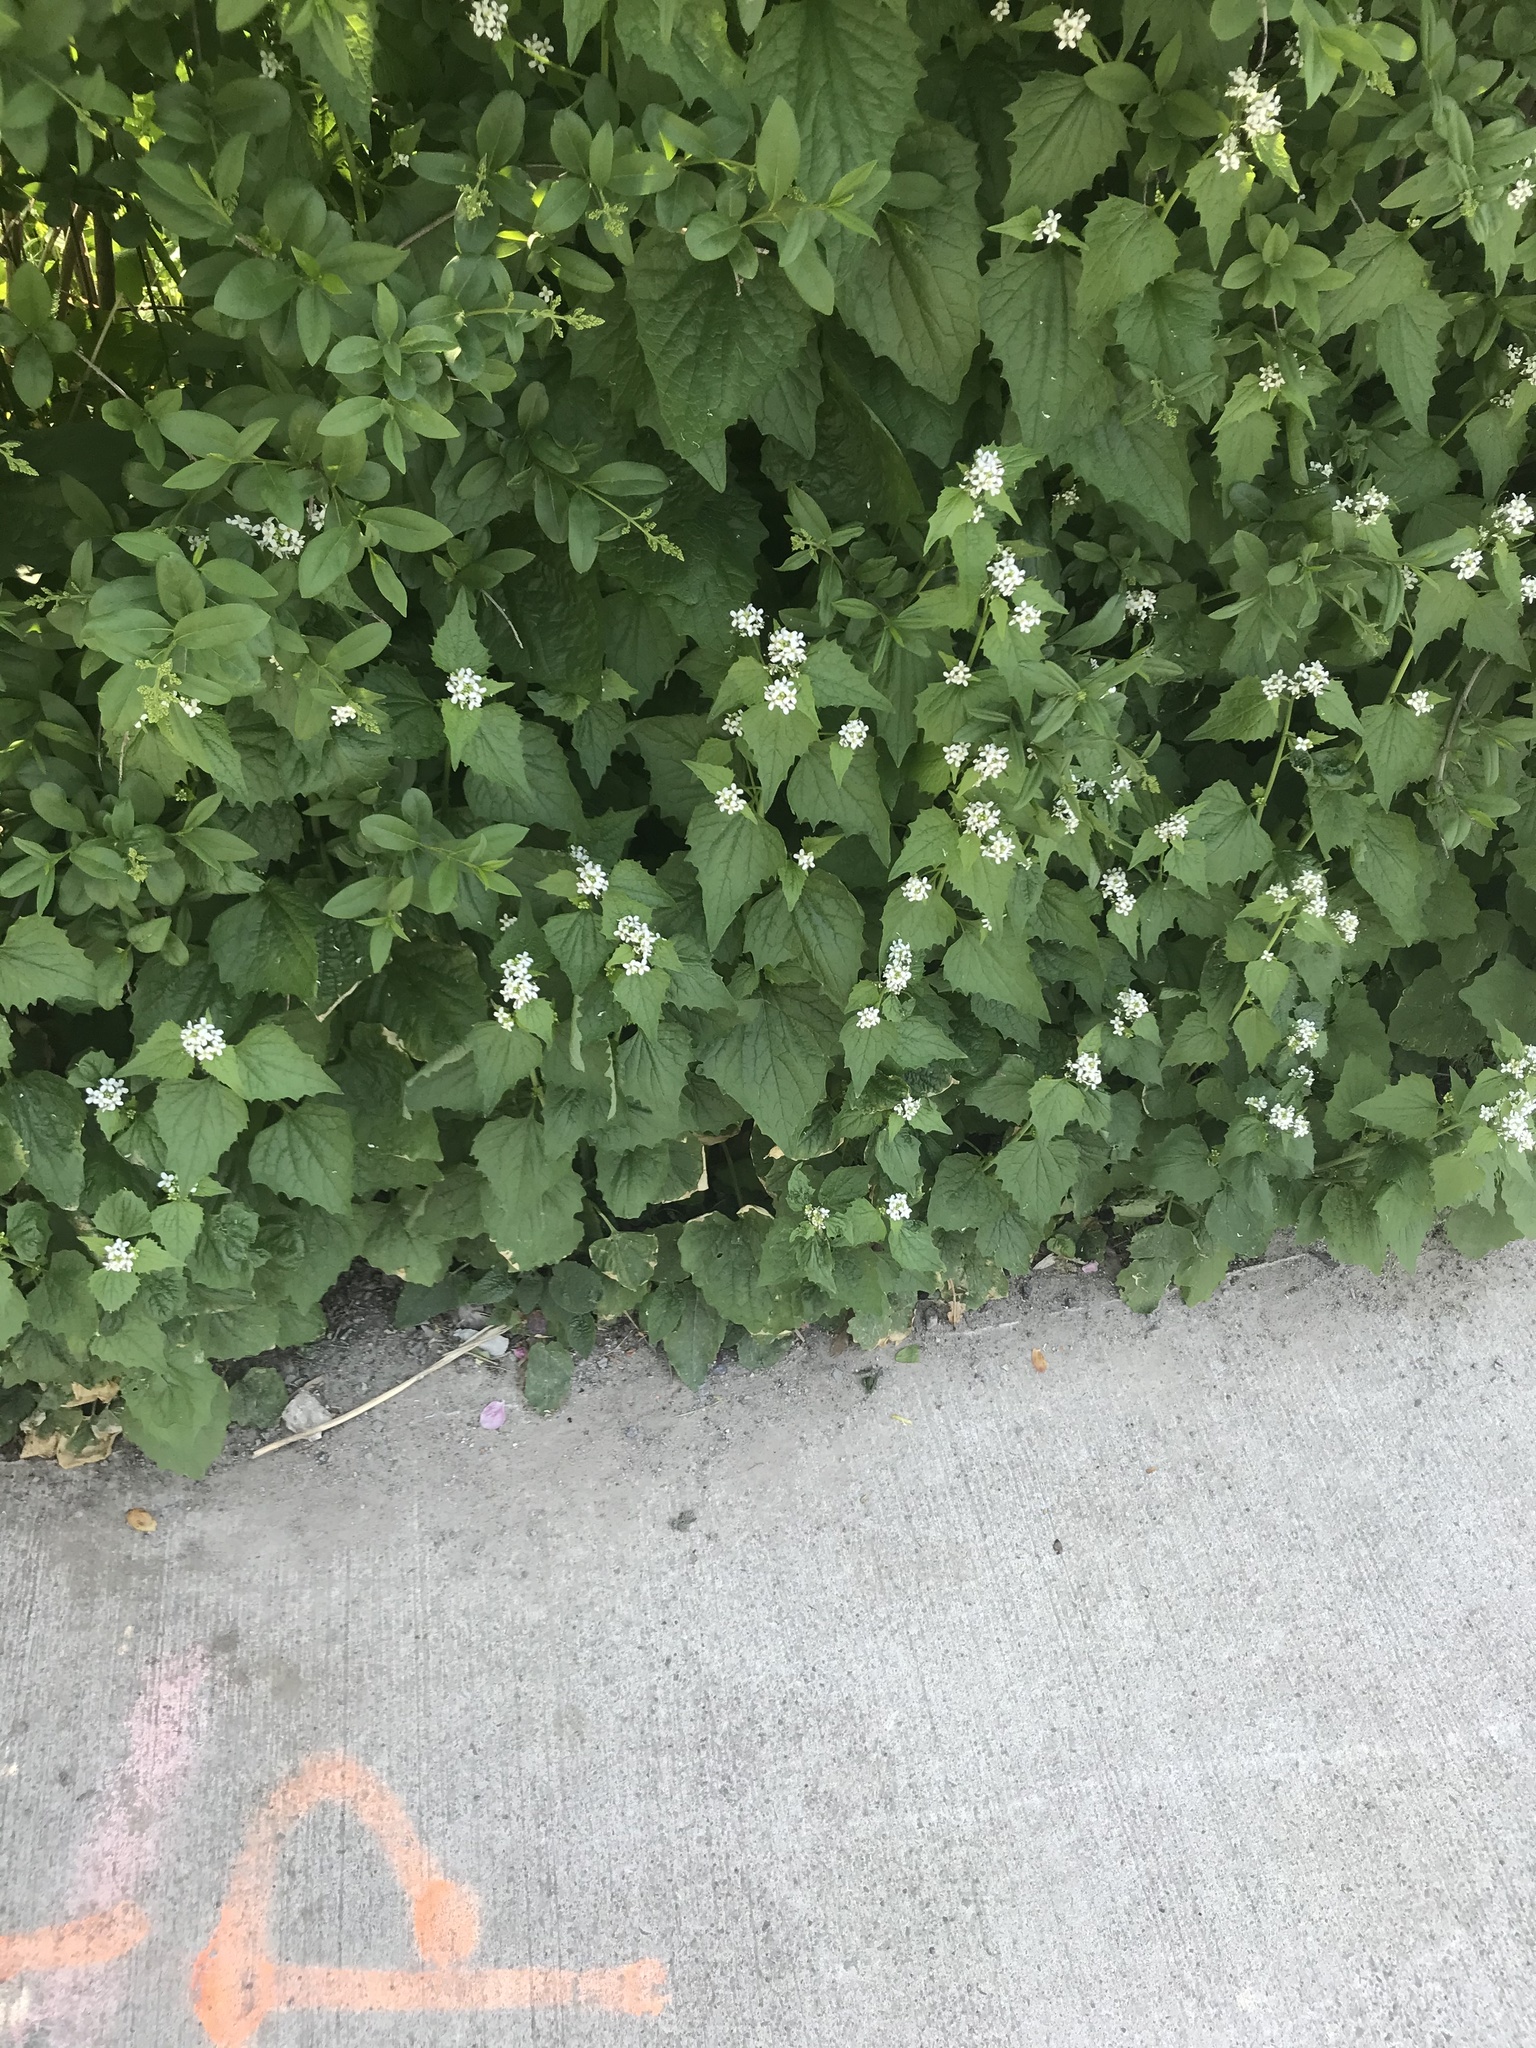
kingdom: Plantae
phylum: Tracheophyta
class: Magnoliopsida
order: Brassicales
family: Brassicaceae
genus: Alliaria
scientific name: Alliaria petiolata
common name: Garlic mustard
